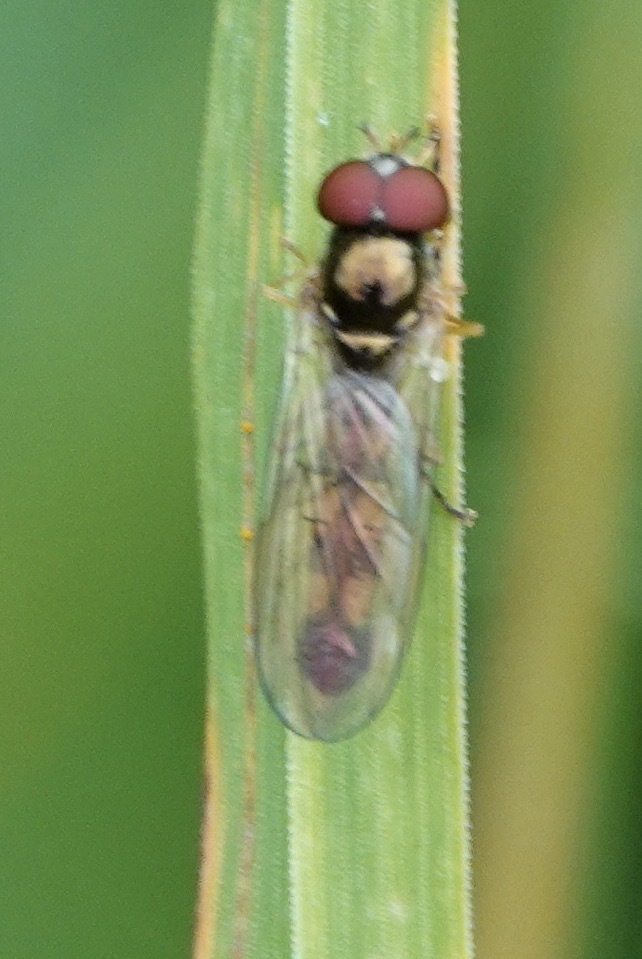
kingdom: Animalia
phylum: Arthropoda
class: Insecta
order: Diptera
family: Syrphidae
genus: Melanostoma
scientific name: Melanostoma scalare
